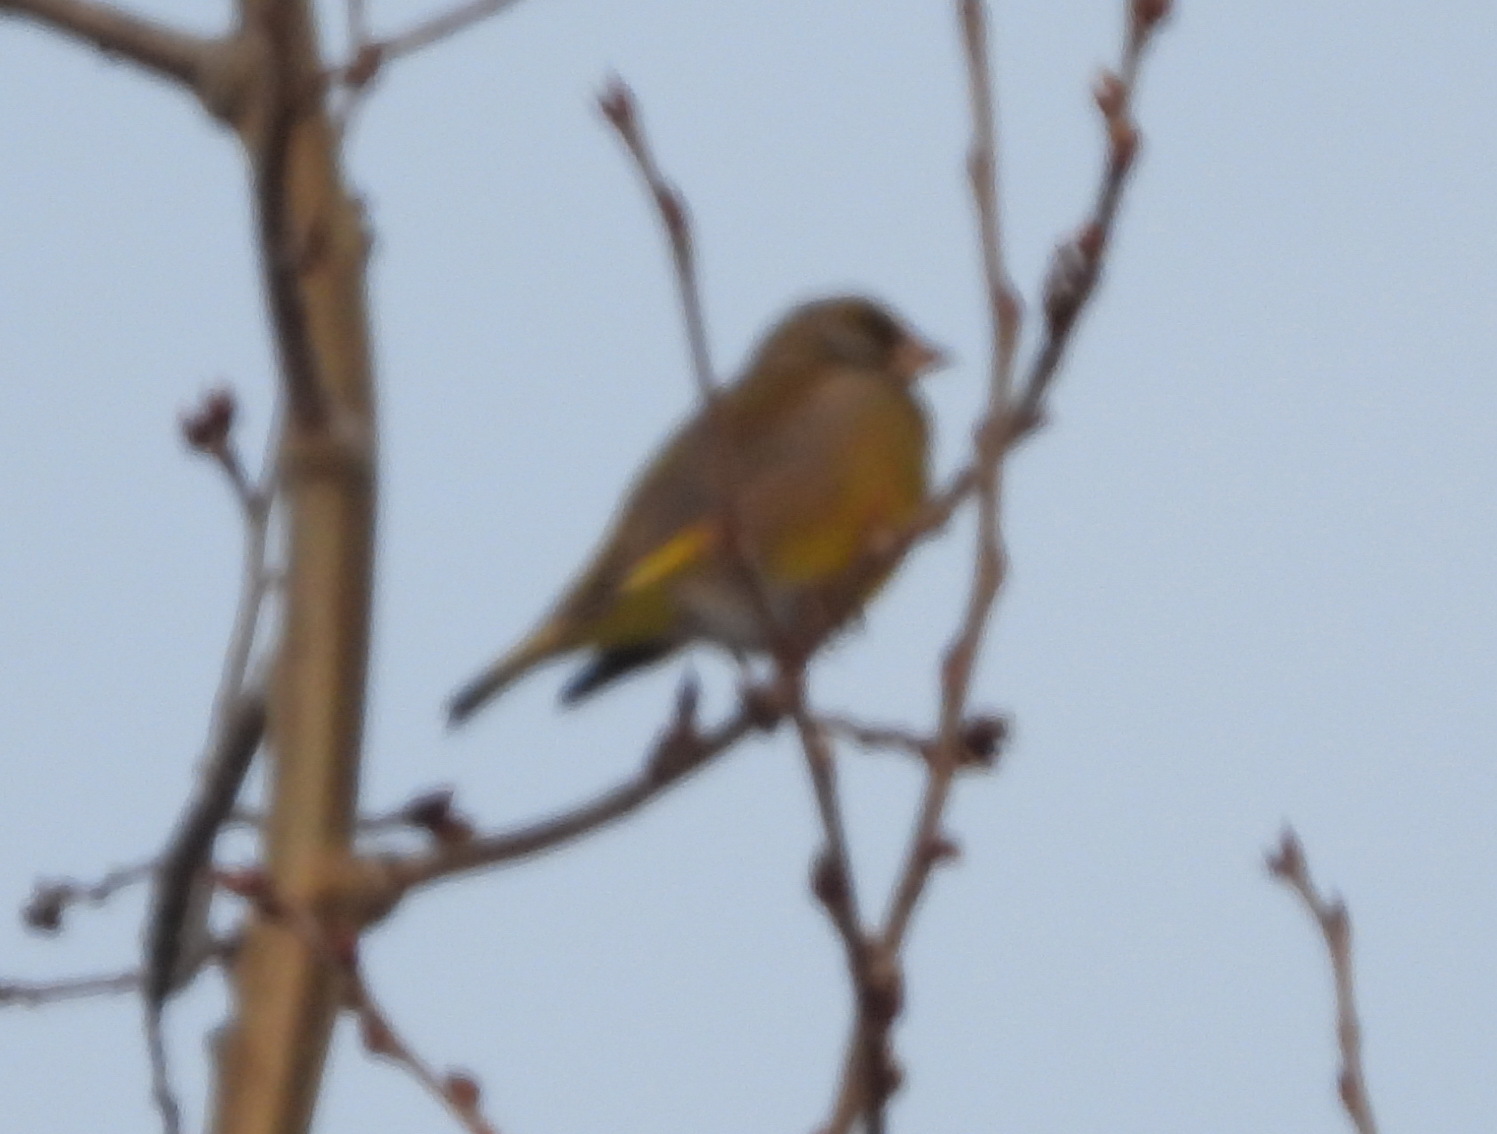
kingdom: Plantae
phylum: Tracheophyta
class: Liliopsida
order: Poales
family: Poaceae
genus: Chloris
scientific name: Chloris chloris
